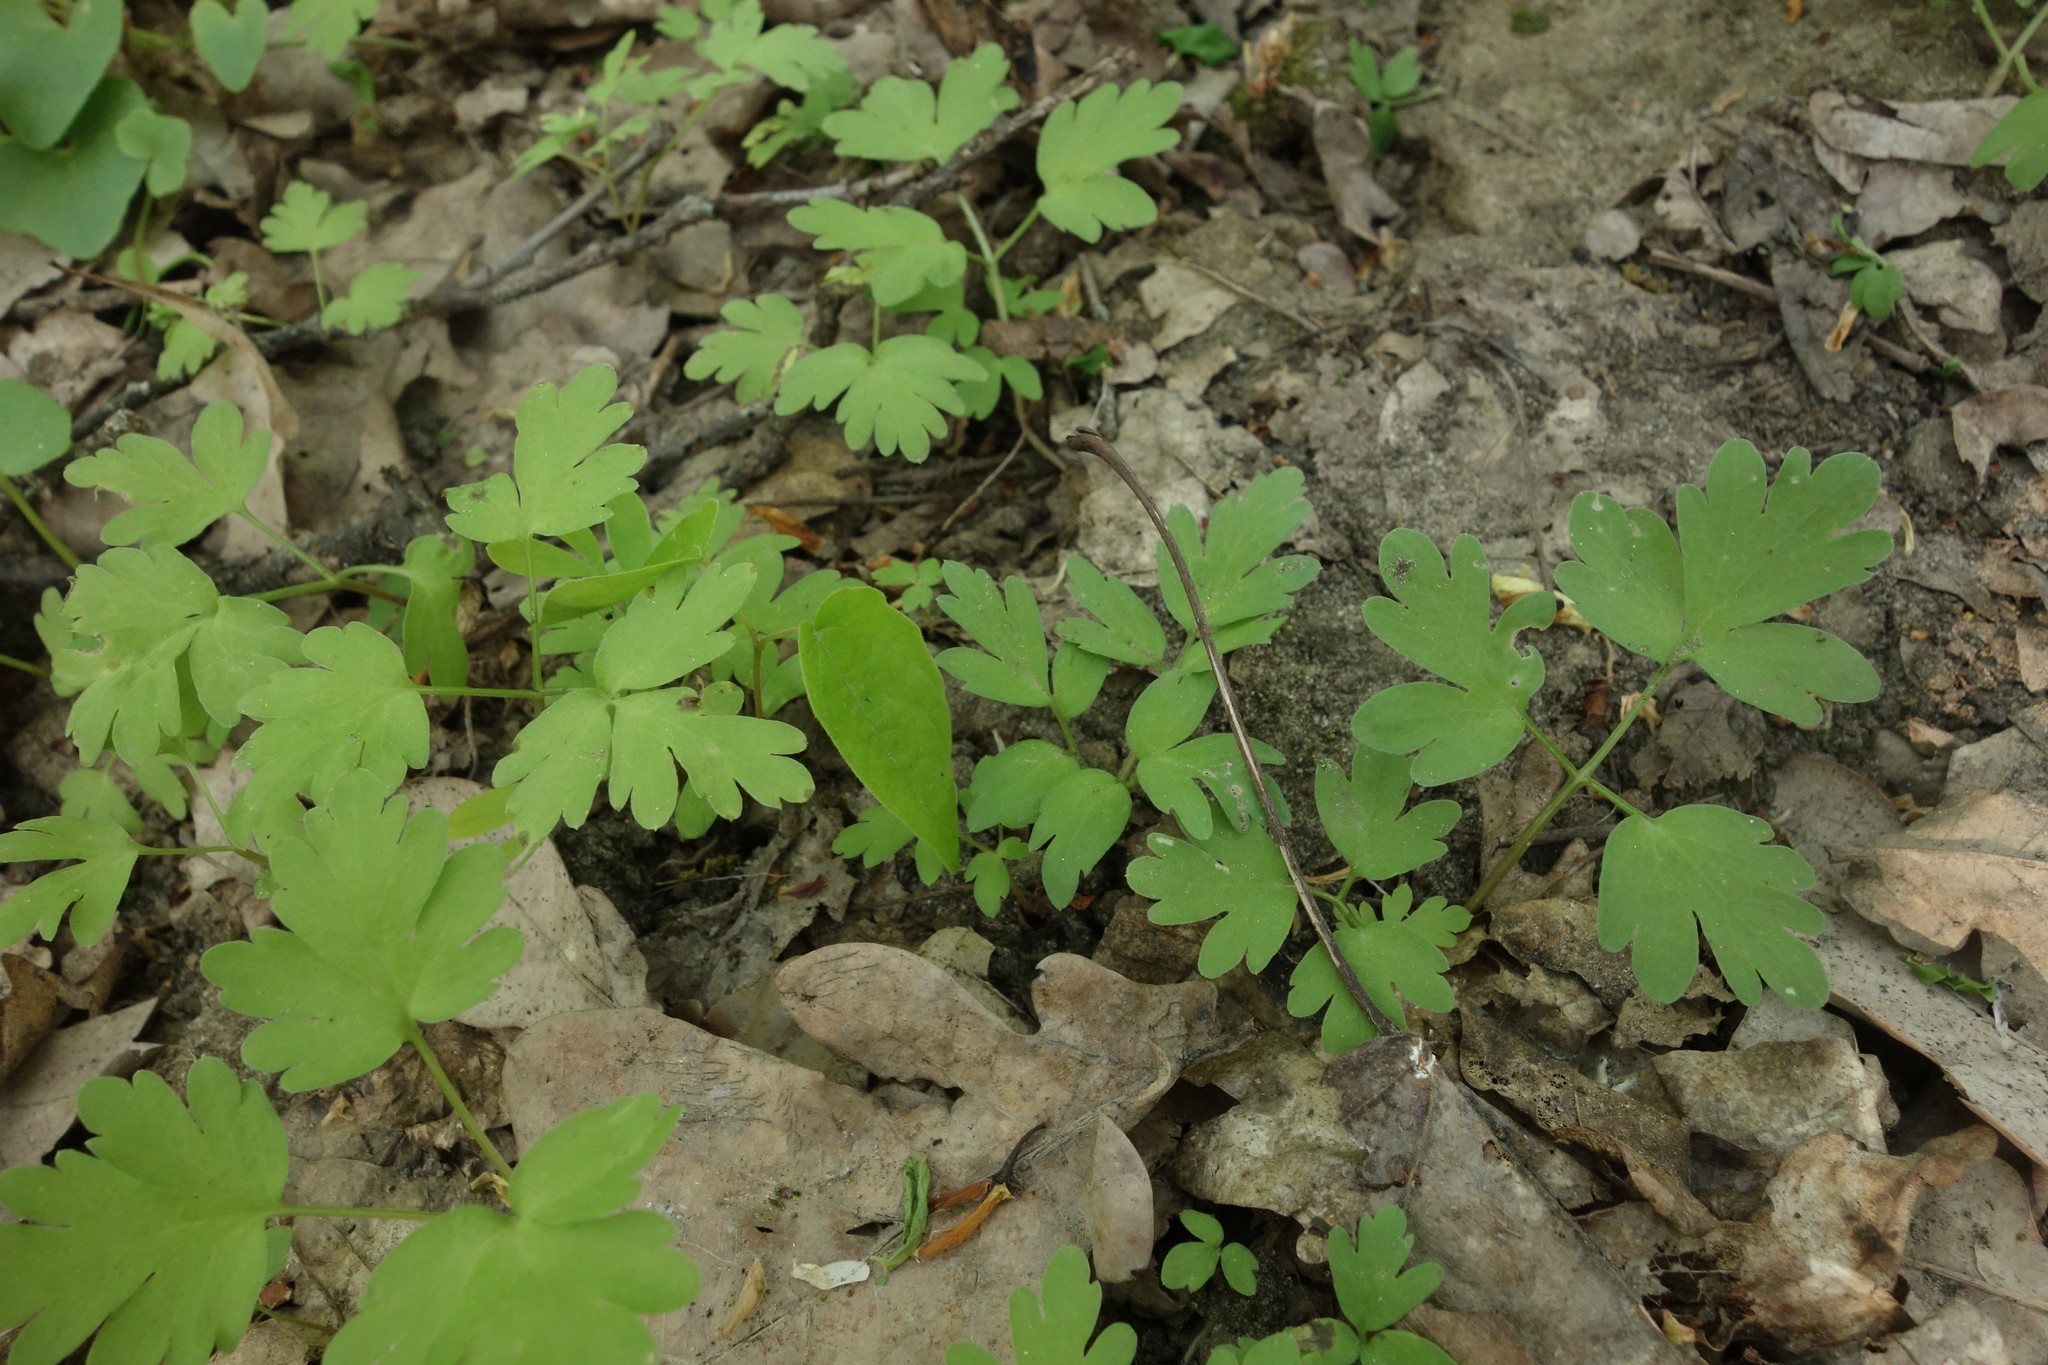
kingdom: Plantae
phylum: Tracheophyta
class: Magnoliopsida
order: Dipsacales
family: Viburnaceae
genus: Adoxa
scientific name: Adoxa moschatellina
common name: Moschatel
